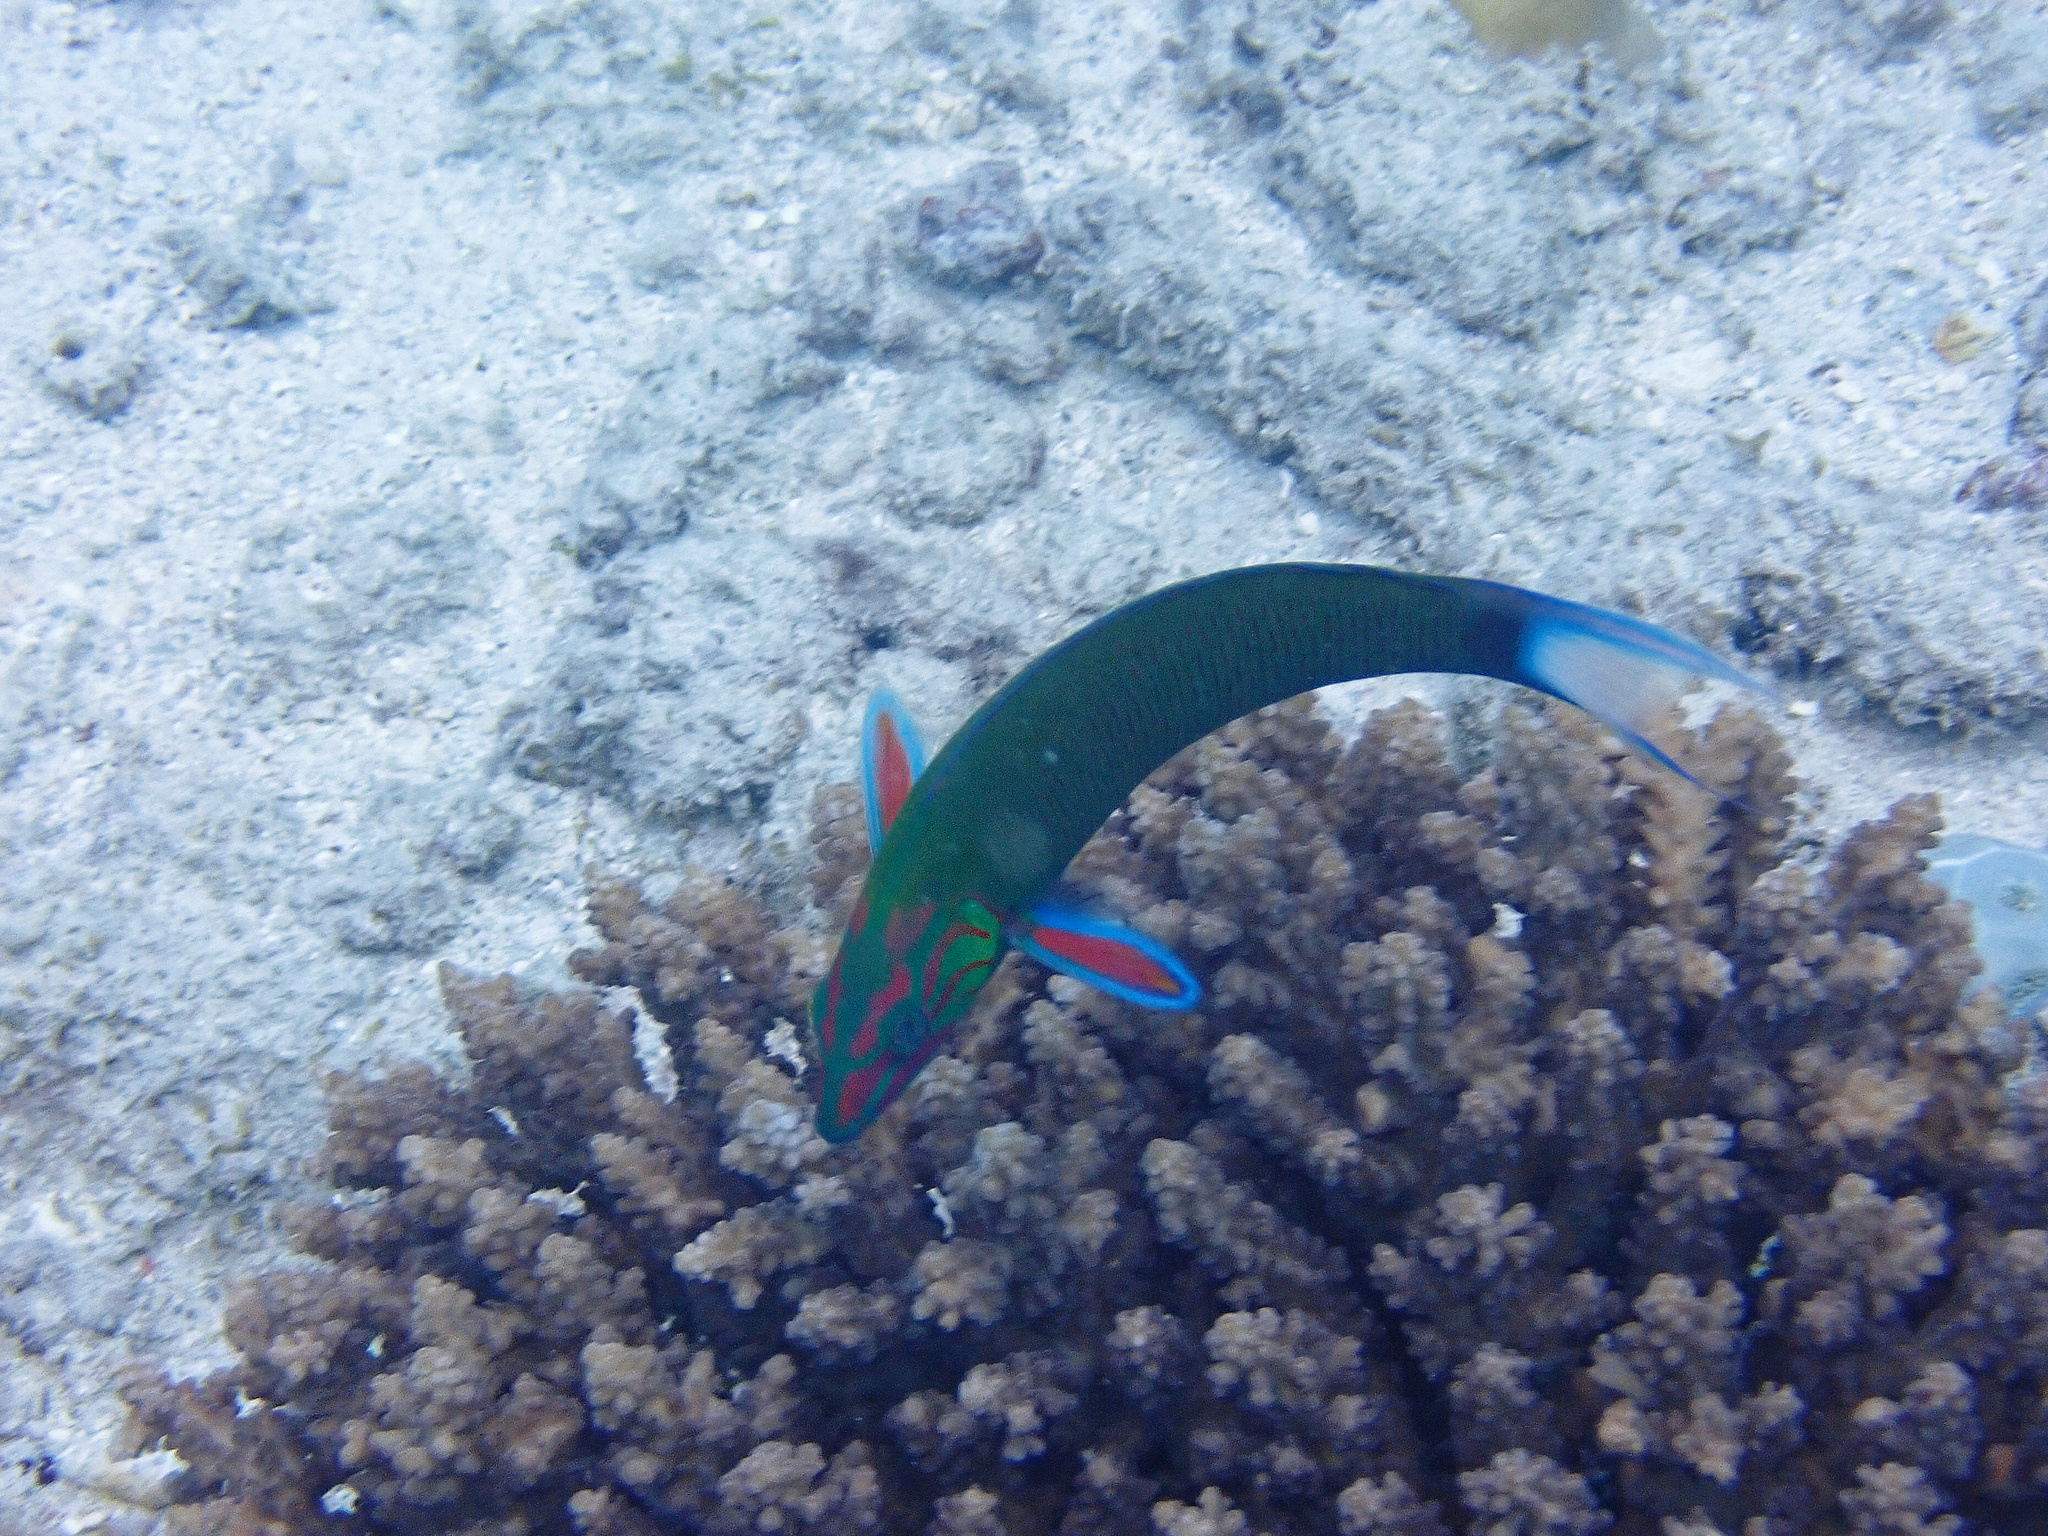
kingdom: Animalia
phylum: Chordata
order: Perciformes
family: Labridae
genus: Thalassoma
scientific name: Thalassoma lunare
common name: Blue wrasse
